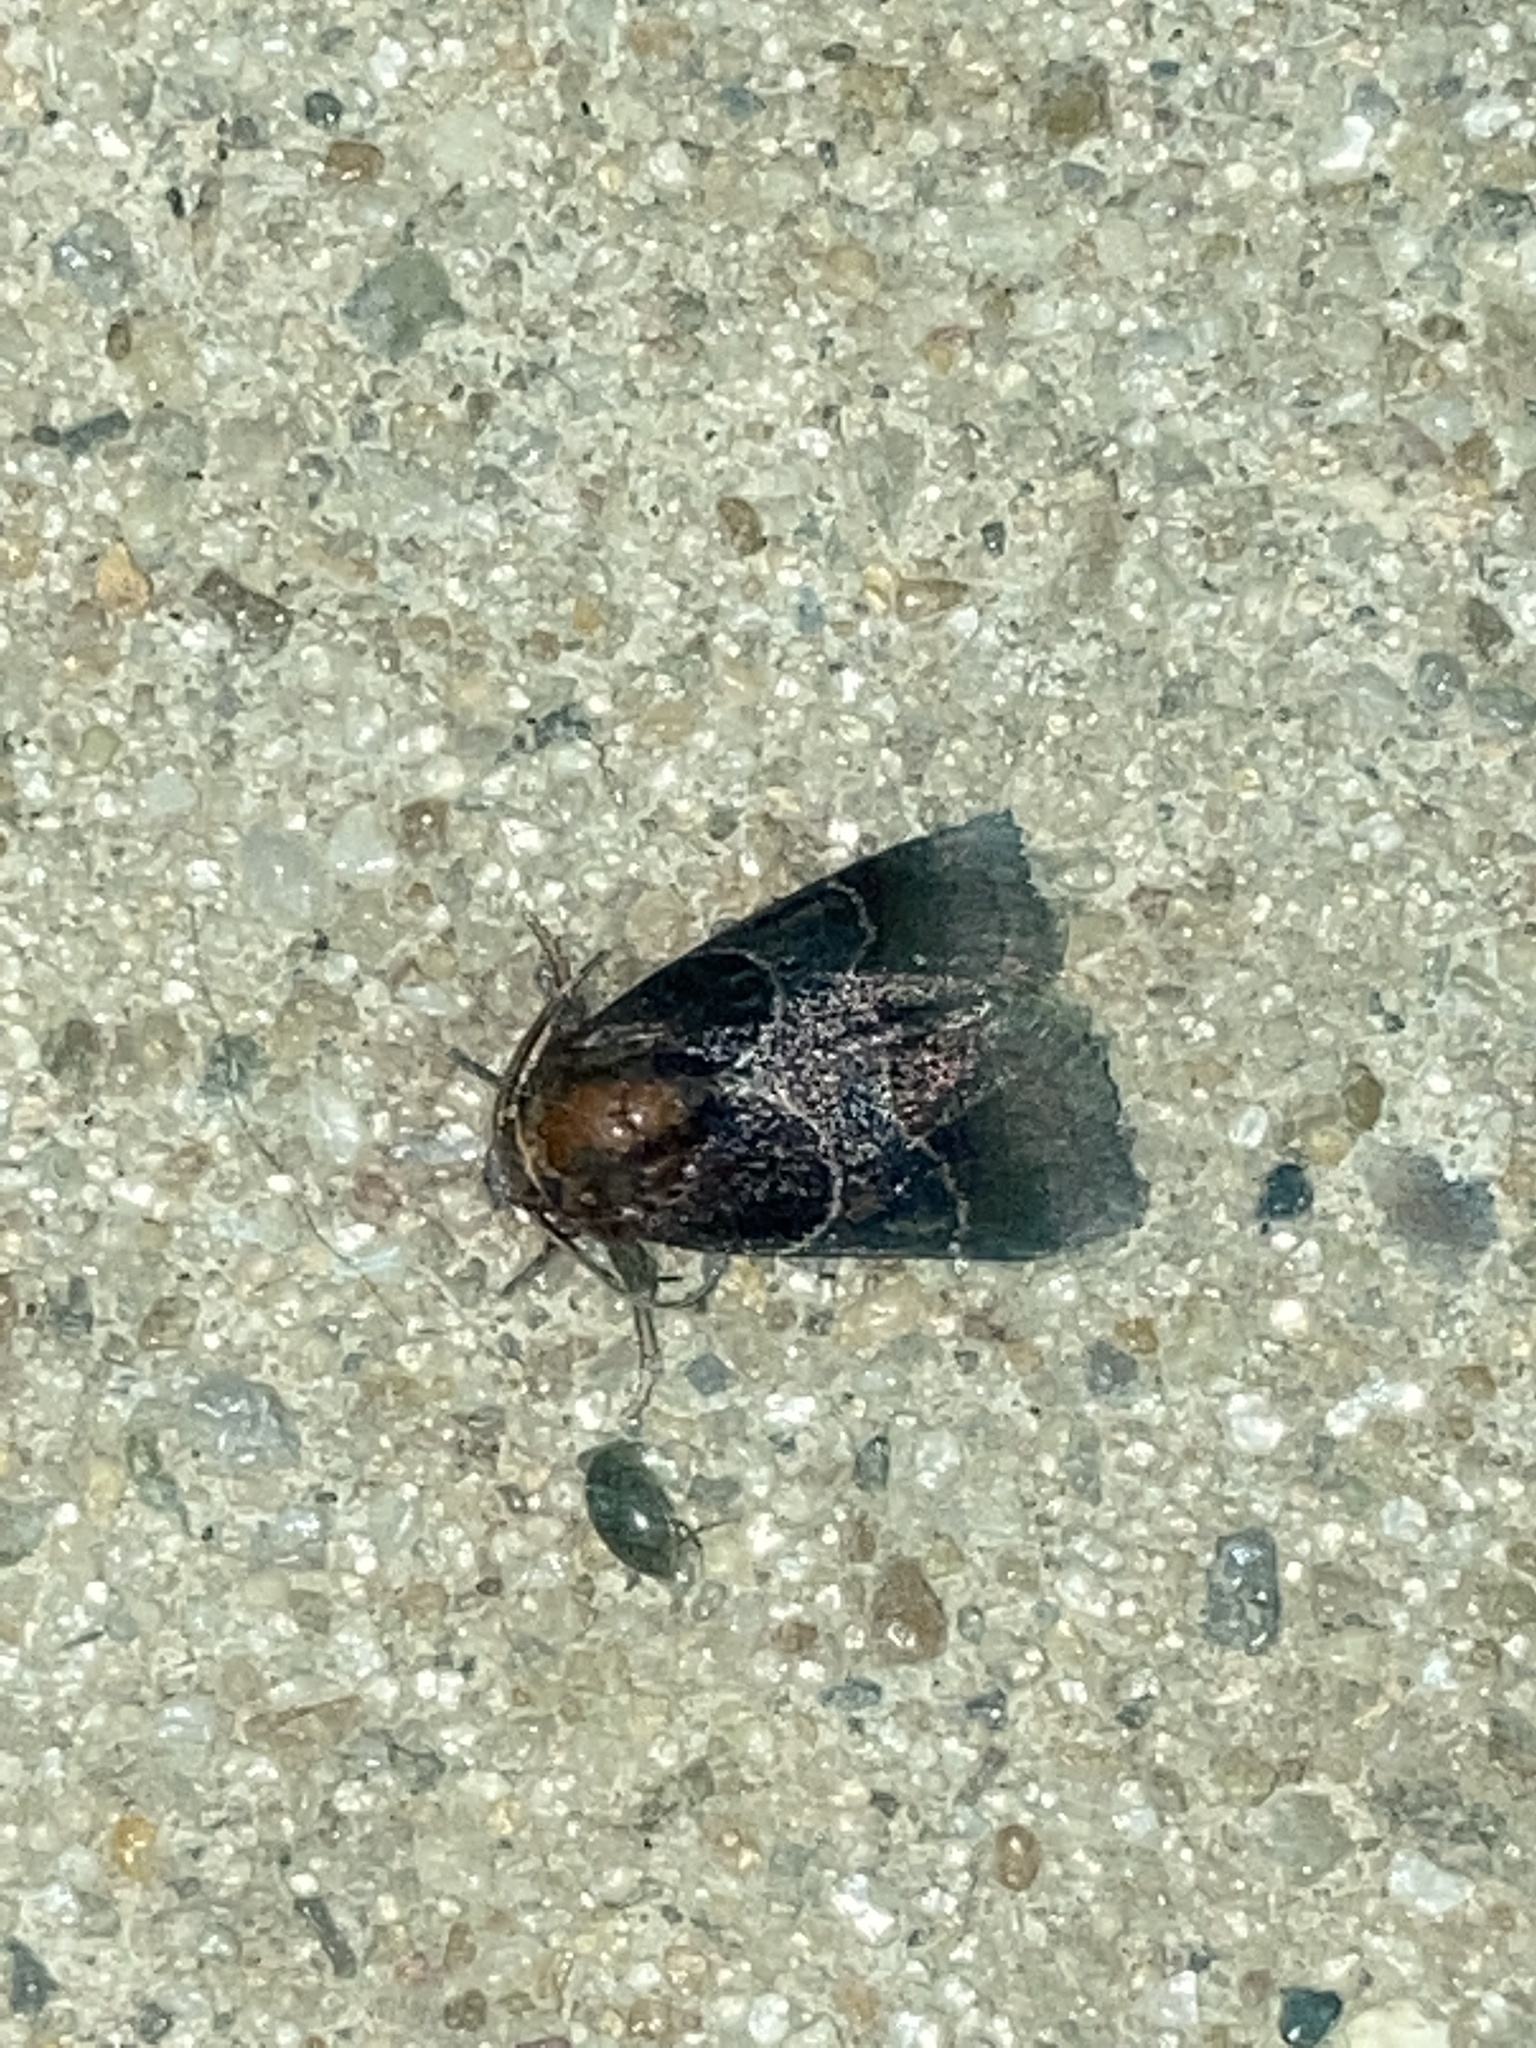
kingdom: Animalia
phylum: Arthropoda
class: Insecta
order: Lepidoptera
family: Noctuidae
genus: Schinia
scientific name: Schinia arcigera
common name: Arcigera flower moth
